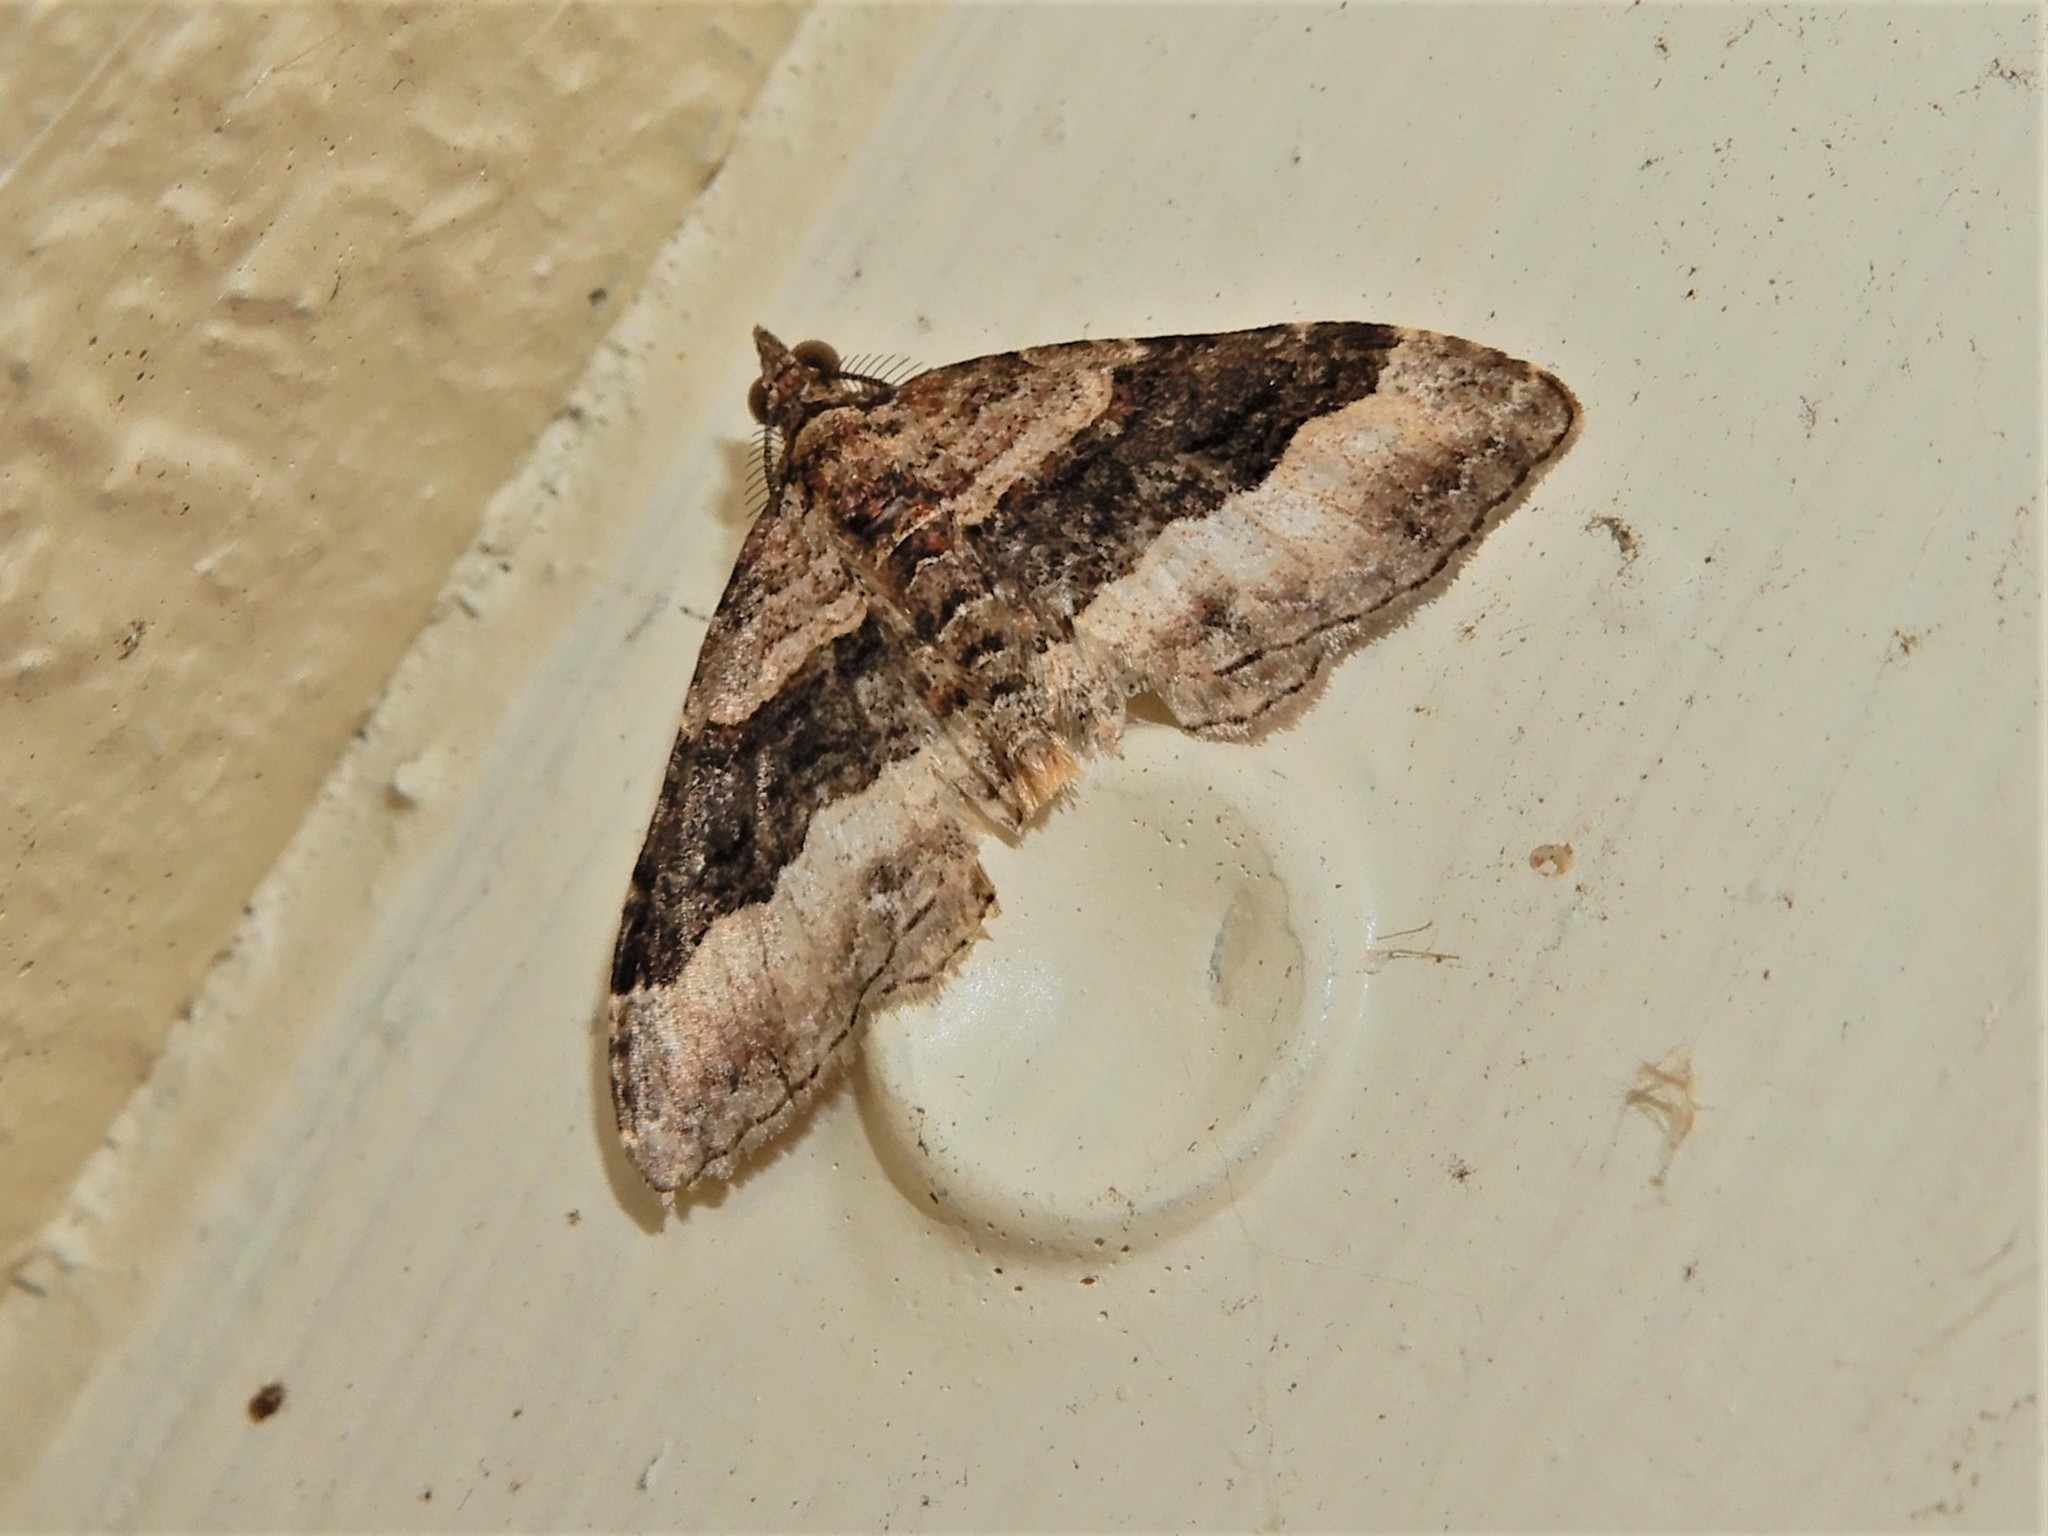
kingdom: Animalia
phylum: Arthropoda
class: Insecta
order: Lepidoptera
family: Geometridae
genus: Epyaxa
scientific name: Epyaxa lucidata
